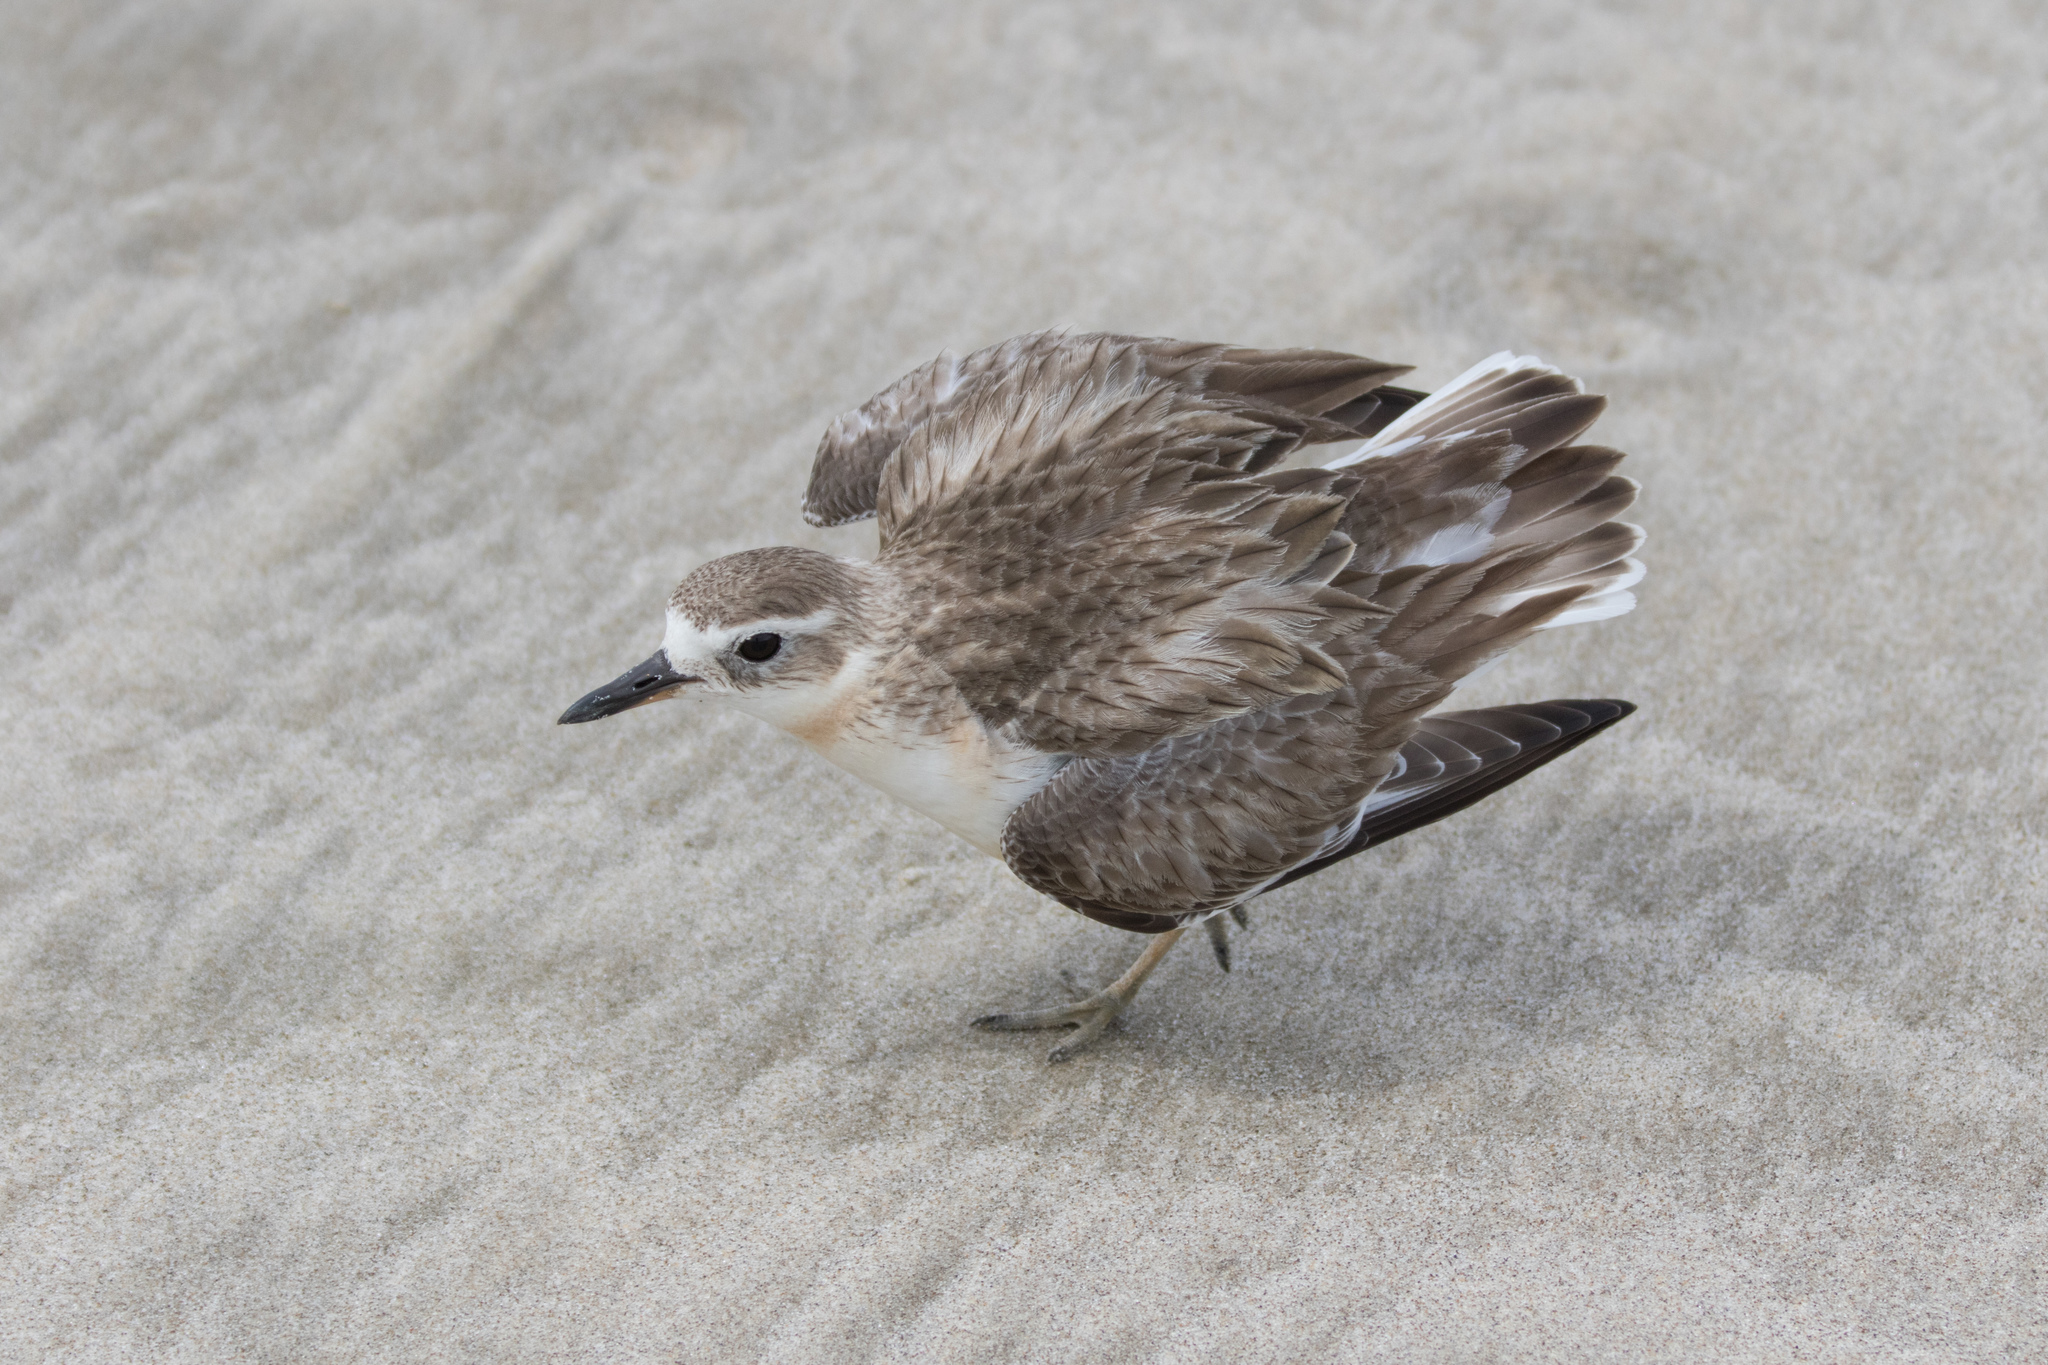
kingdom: Animalia
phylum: Chordata
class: Aves
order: Charadriiformes
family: Charadriidae
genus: Anarhynchus
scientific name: Anarhynchus
